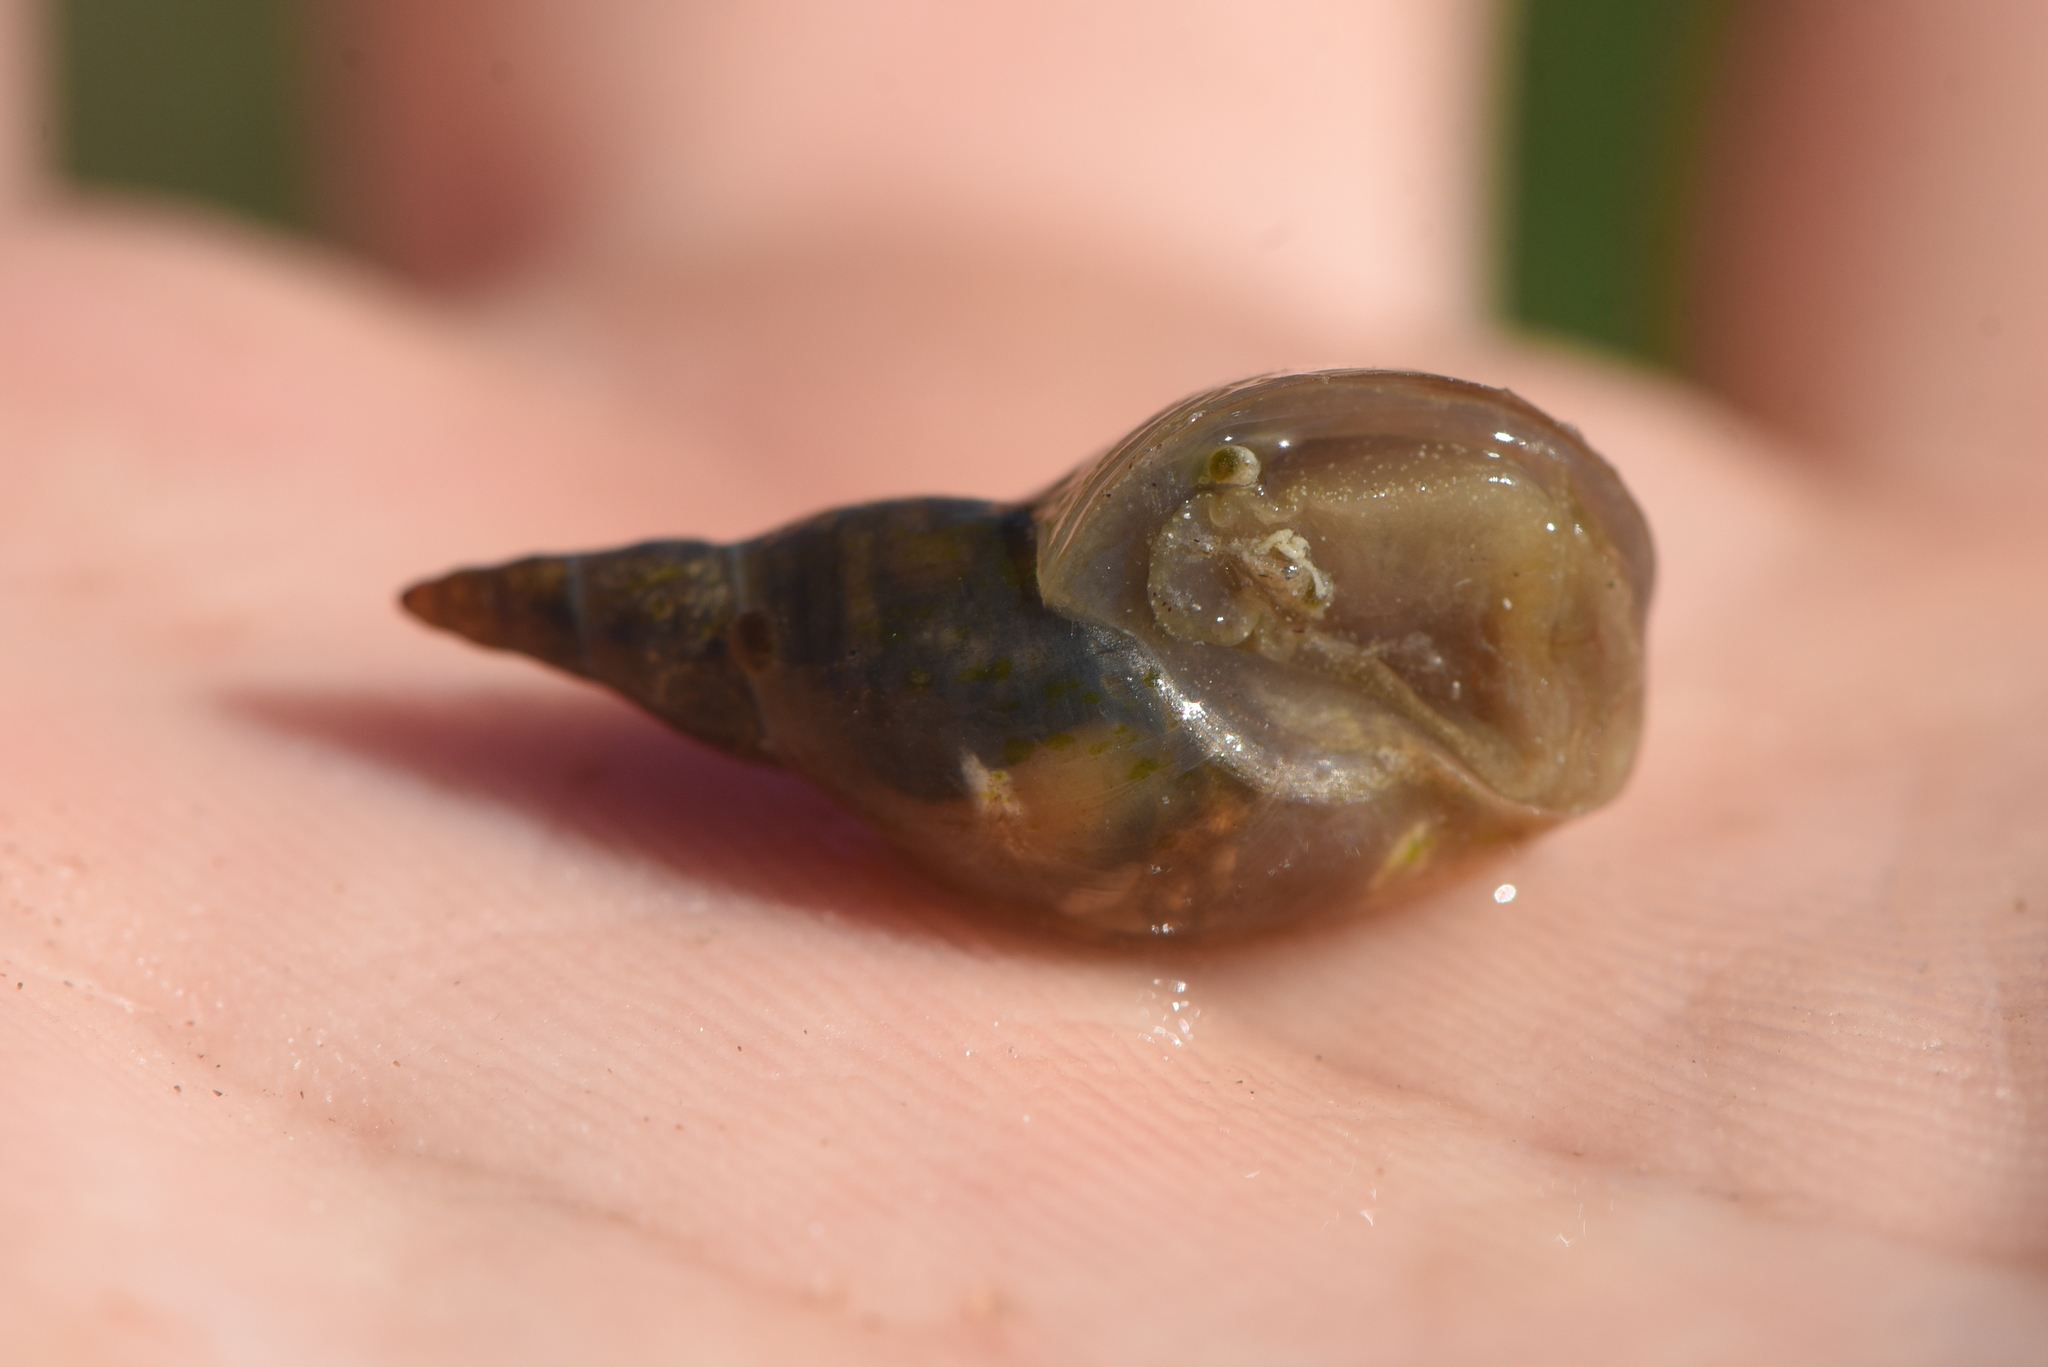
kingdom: Animalia
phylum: Mollusca
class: Gastropoda
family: Lymnaeidae
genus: Lymnaea
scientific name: Lymnaea stagnalis
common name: Great pond snail
